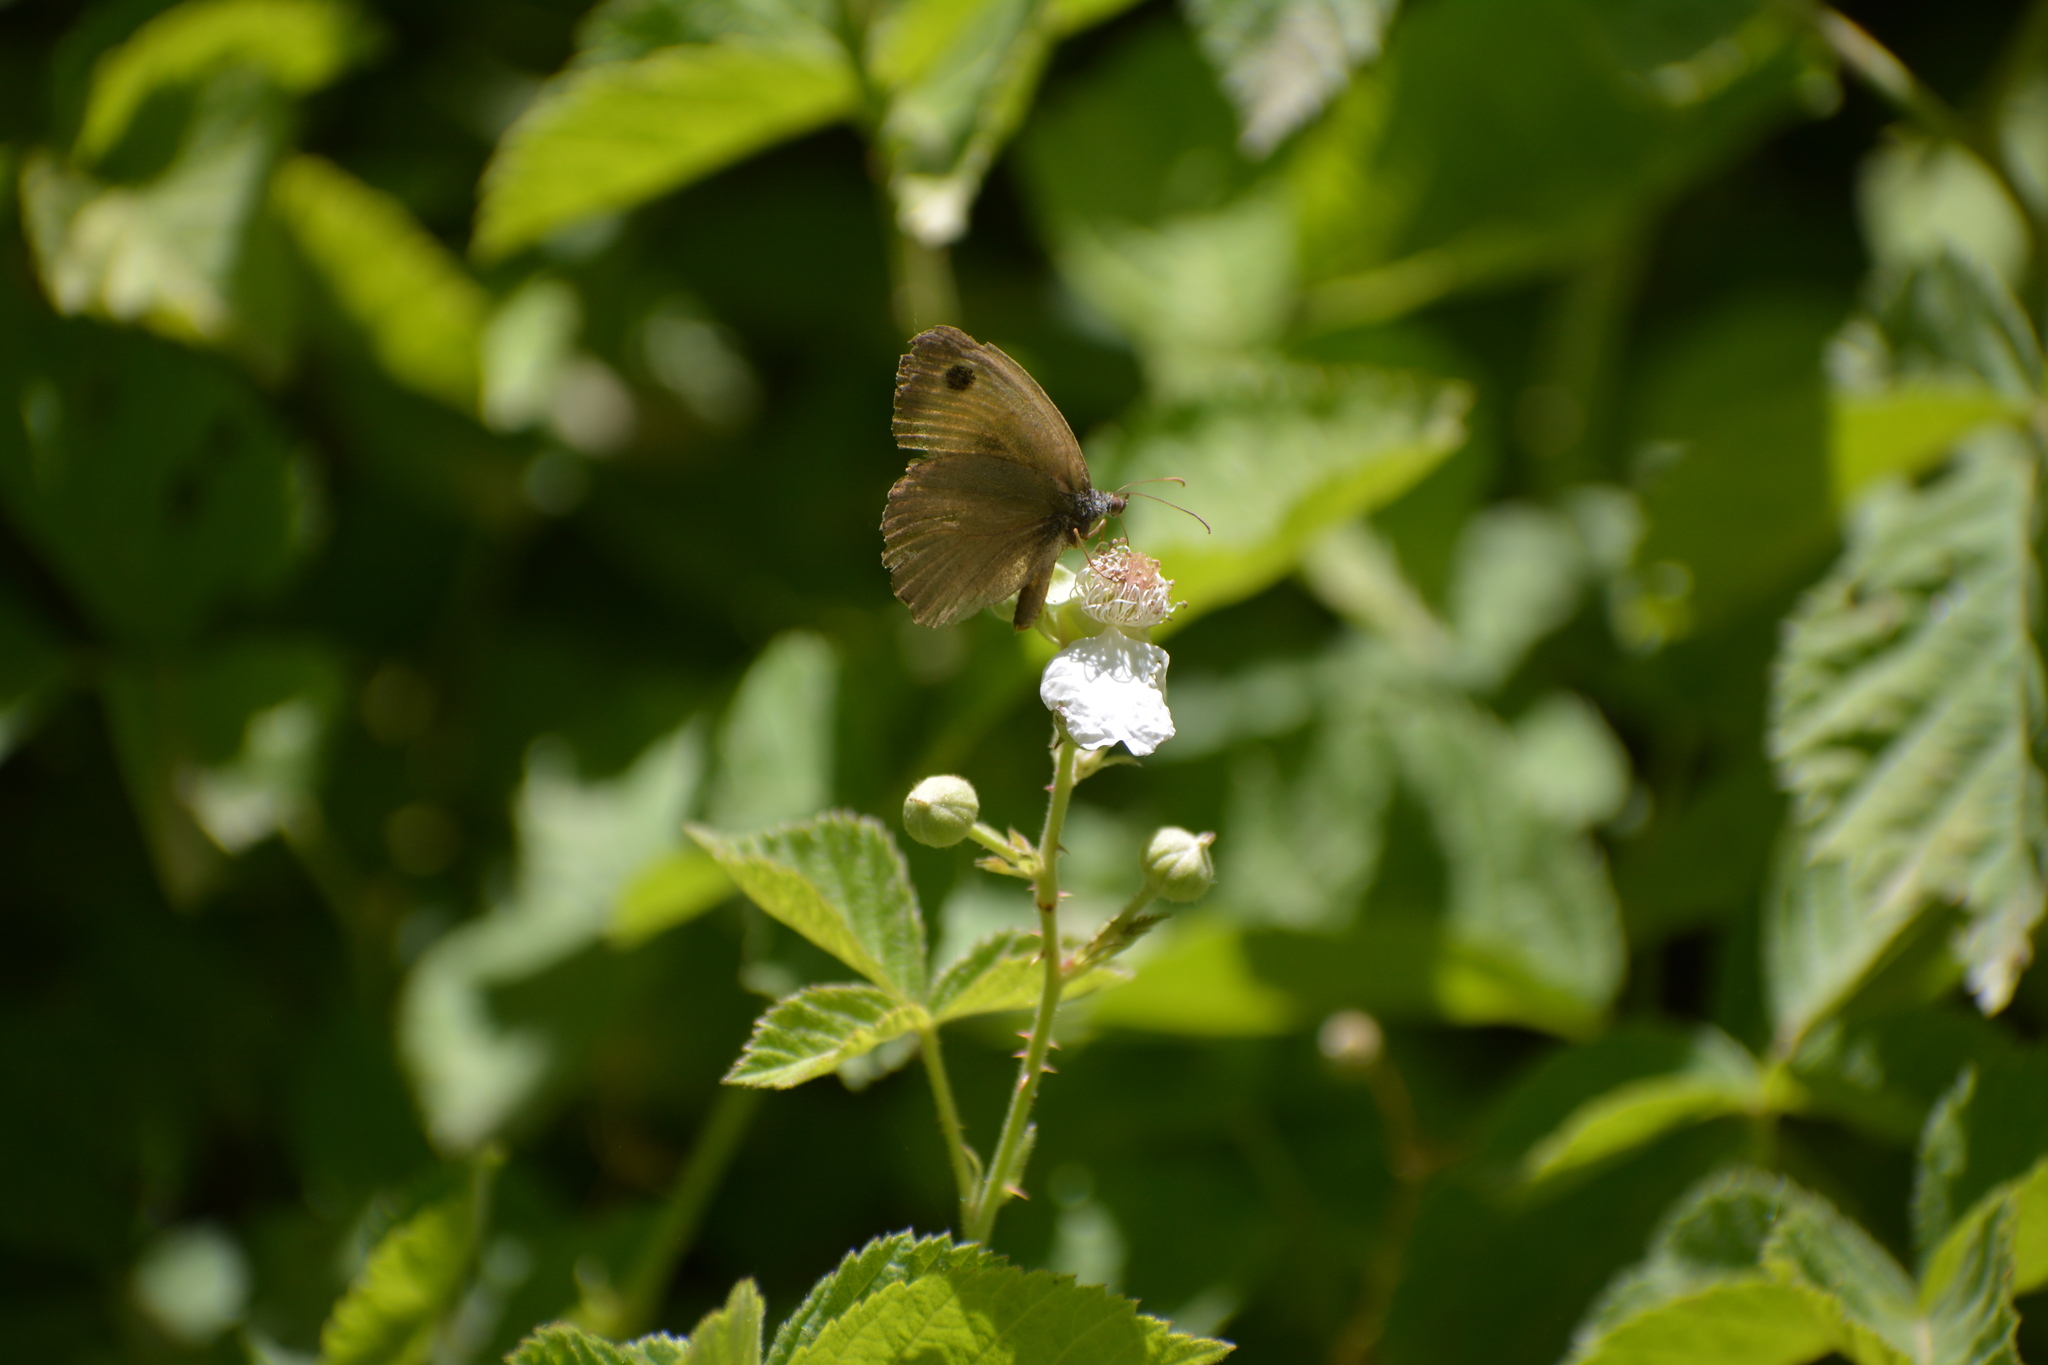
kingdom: Animalia
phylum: Arthropoda
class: Insecta
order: Lepidoptera
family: Nymphalidae
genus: Maniola
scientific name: Maniola telmessia
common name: Persian meadow brown
